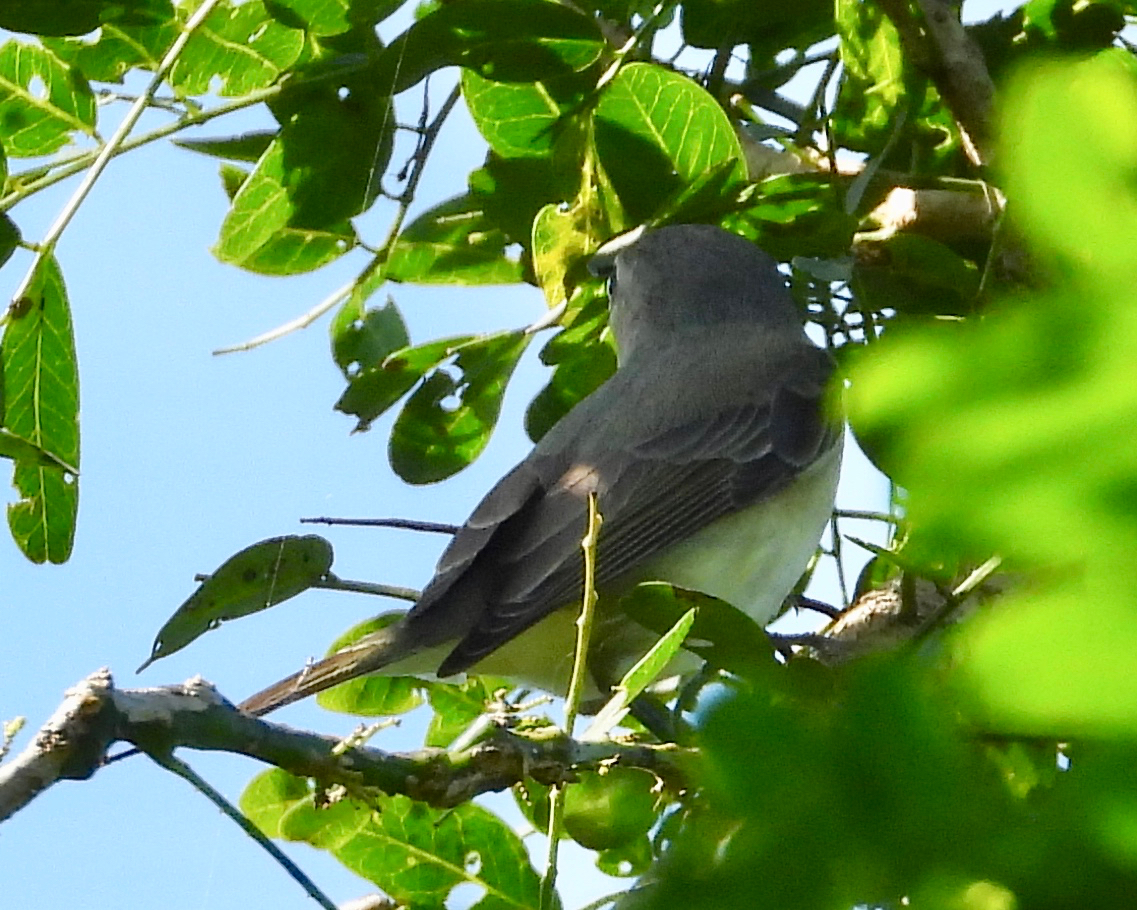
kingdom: Animalia
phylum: Chordata
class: Aves
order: Passeriformes
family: Vireonidae
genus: Vireo
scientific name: Vireo gilvus
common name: Warbling vireo
